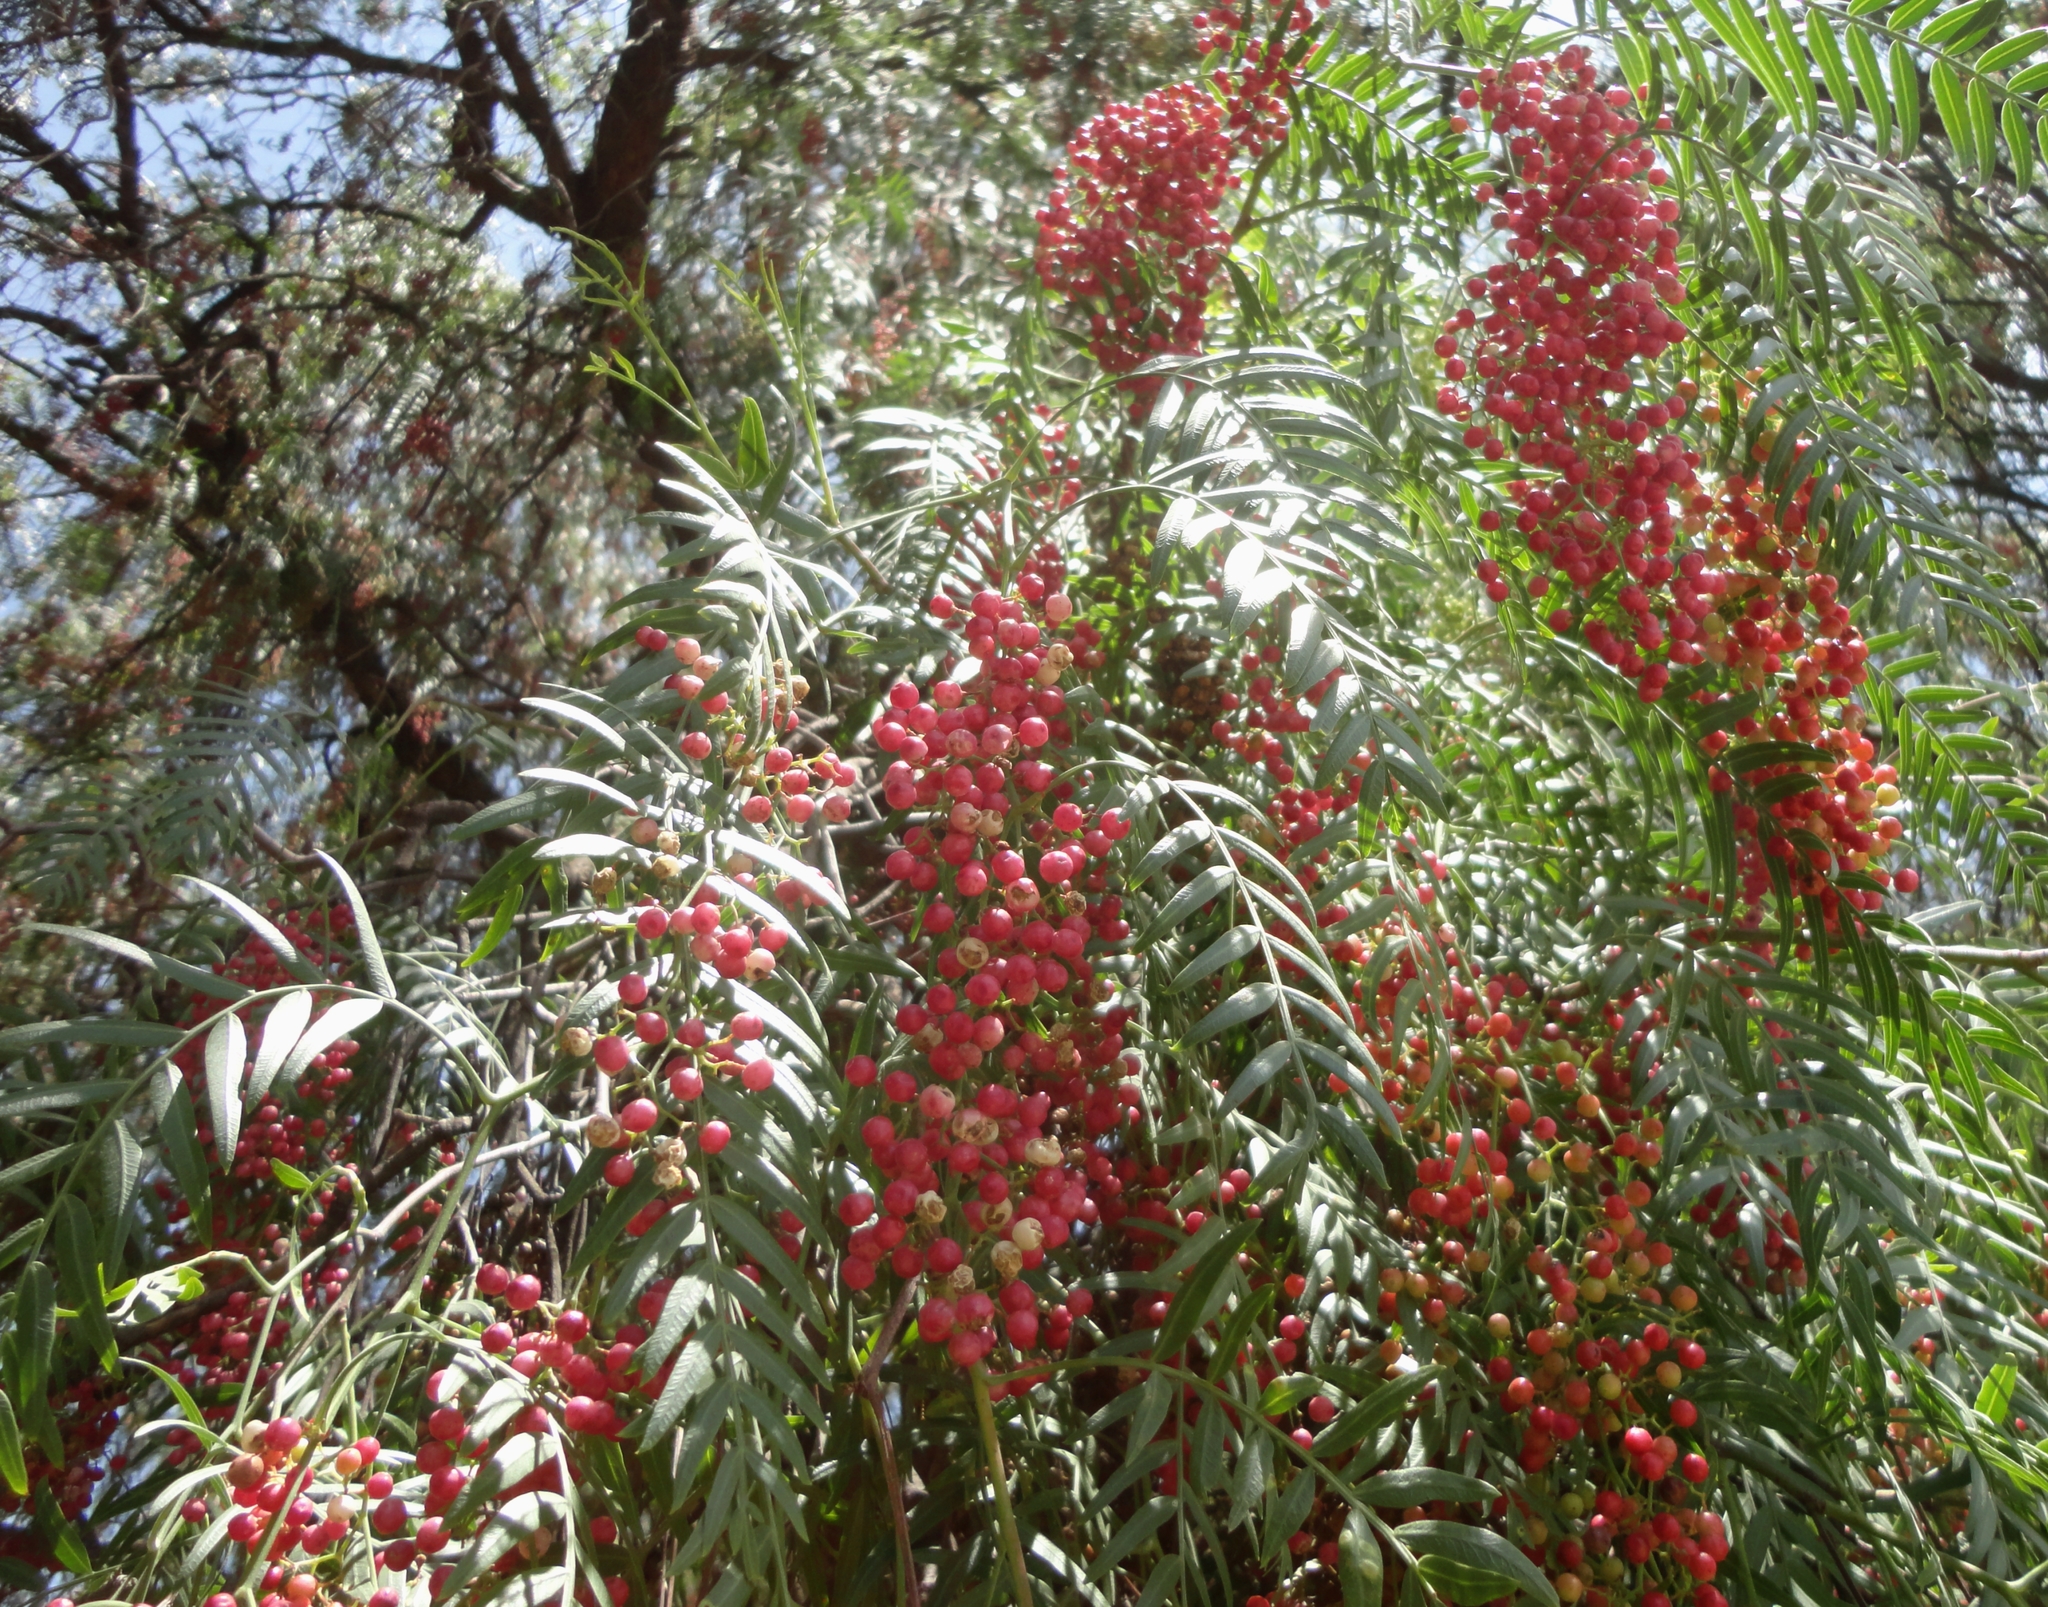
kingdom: Plantae
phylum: Tracheophyta
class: Magnoliopsida
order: Sapindales
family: Anacardiaceae
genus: Schinus
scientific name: Schinus molle
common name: Peruvian peppertree
